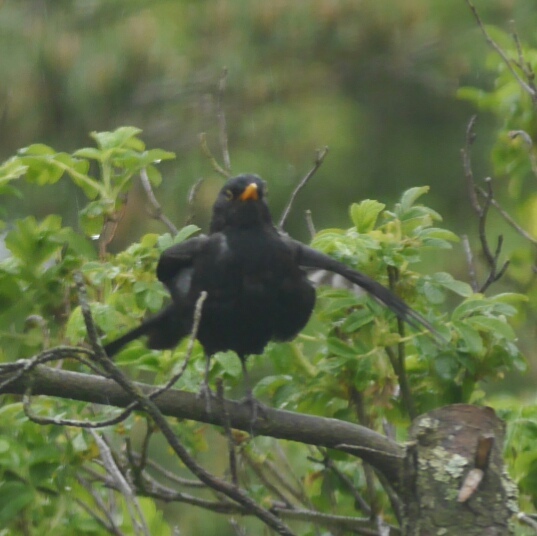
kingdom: Animalia
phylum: Chordata
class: Aves
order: Passeriformes
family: Turdidae
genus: Turdus
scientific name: Turdus merula
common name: Common blackbird
